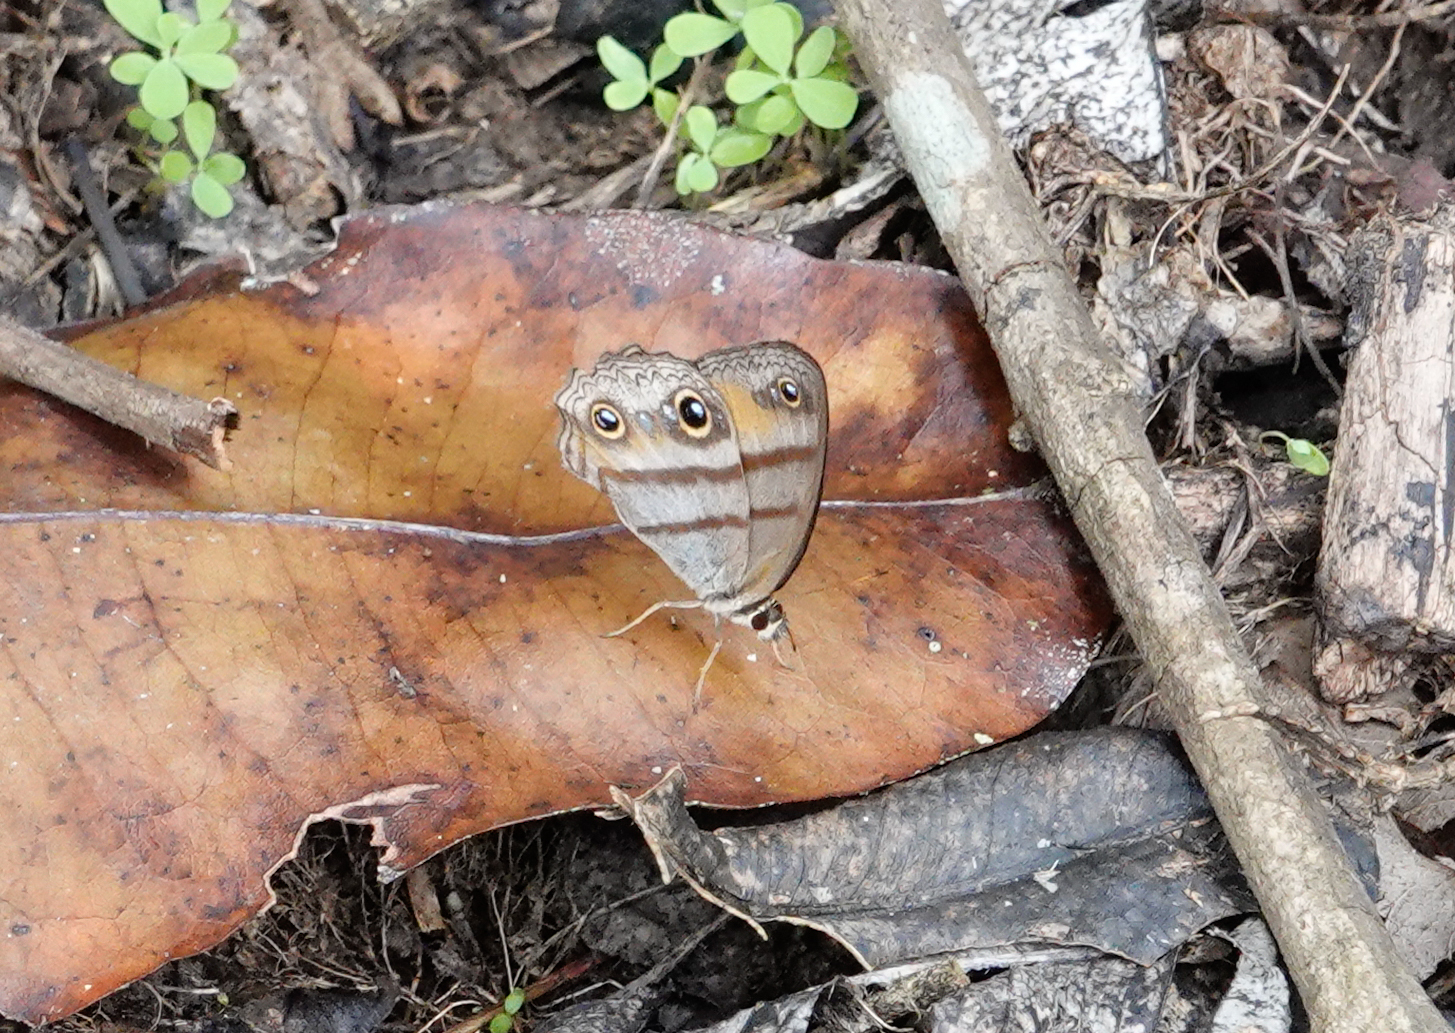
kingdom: Animalia
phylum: Arthropoda
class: Insecta
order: Lepidoptera
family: Nymphalidae
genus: Argyreuptychia
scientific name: Argyreuptychia penelope
